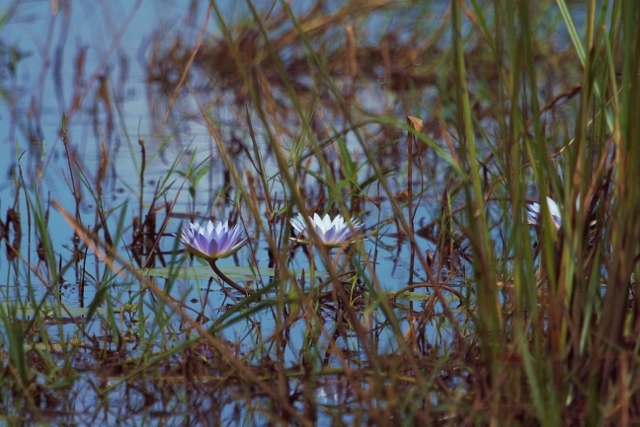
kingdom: Plantae
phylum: Tracheophyta
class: Magnoliopsida
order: Nymphaeales
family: Nymphaeaceae
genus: Nymphaea
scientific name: Nymphaea nouchali
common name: Blue lotus
